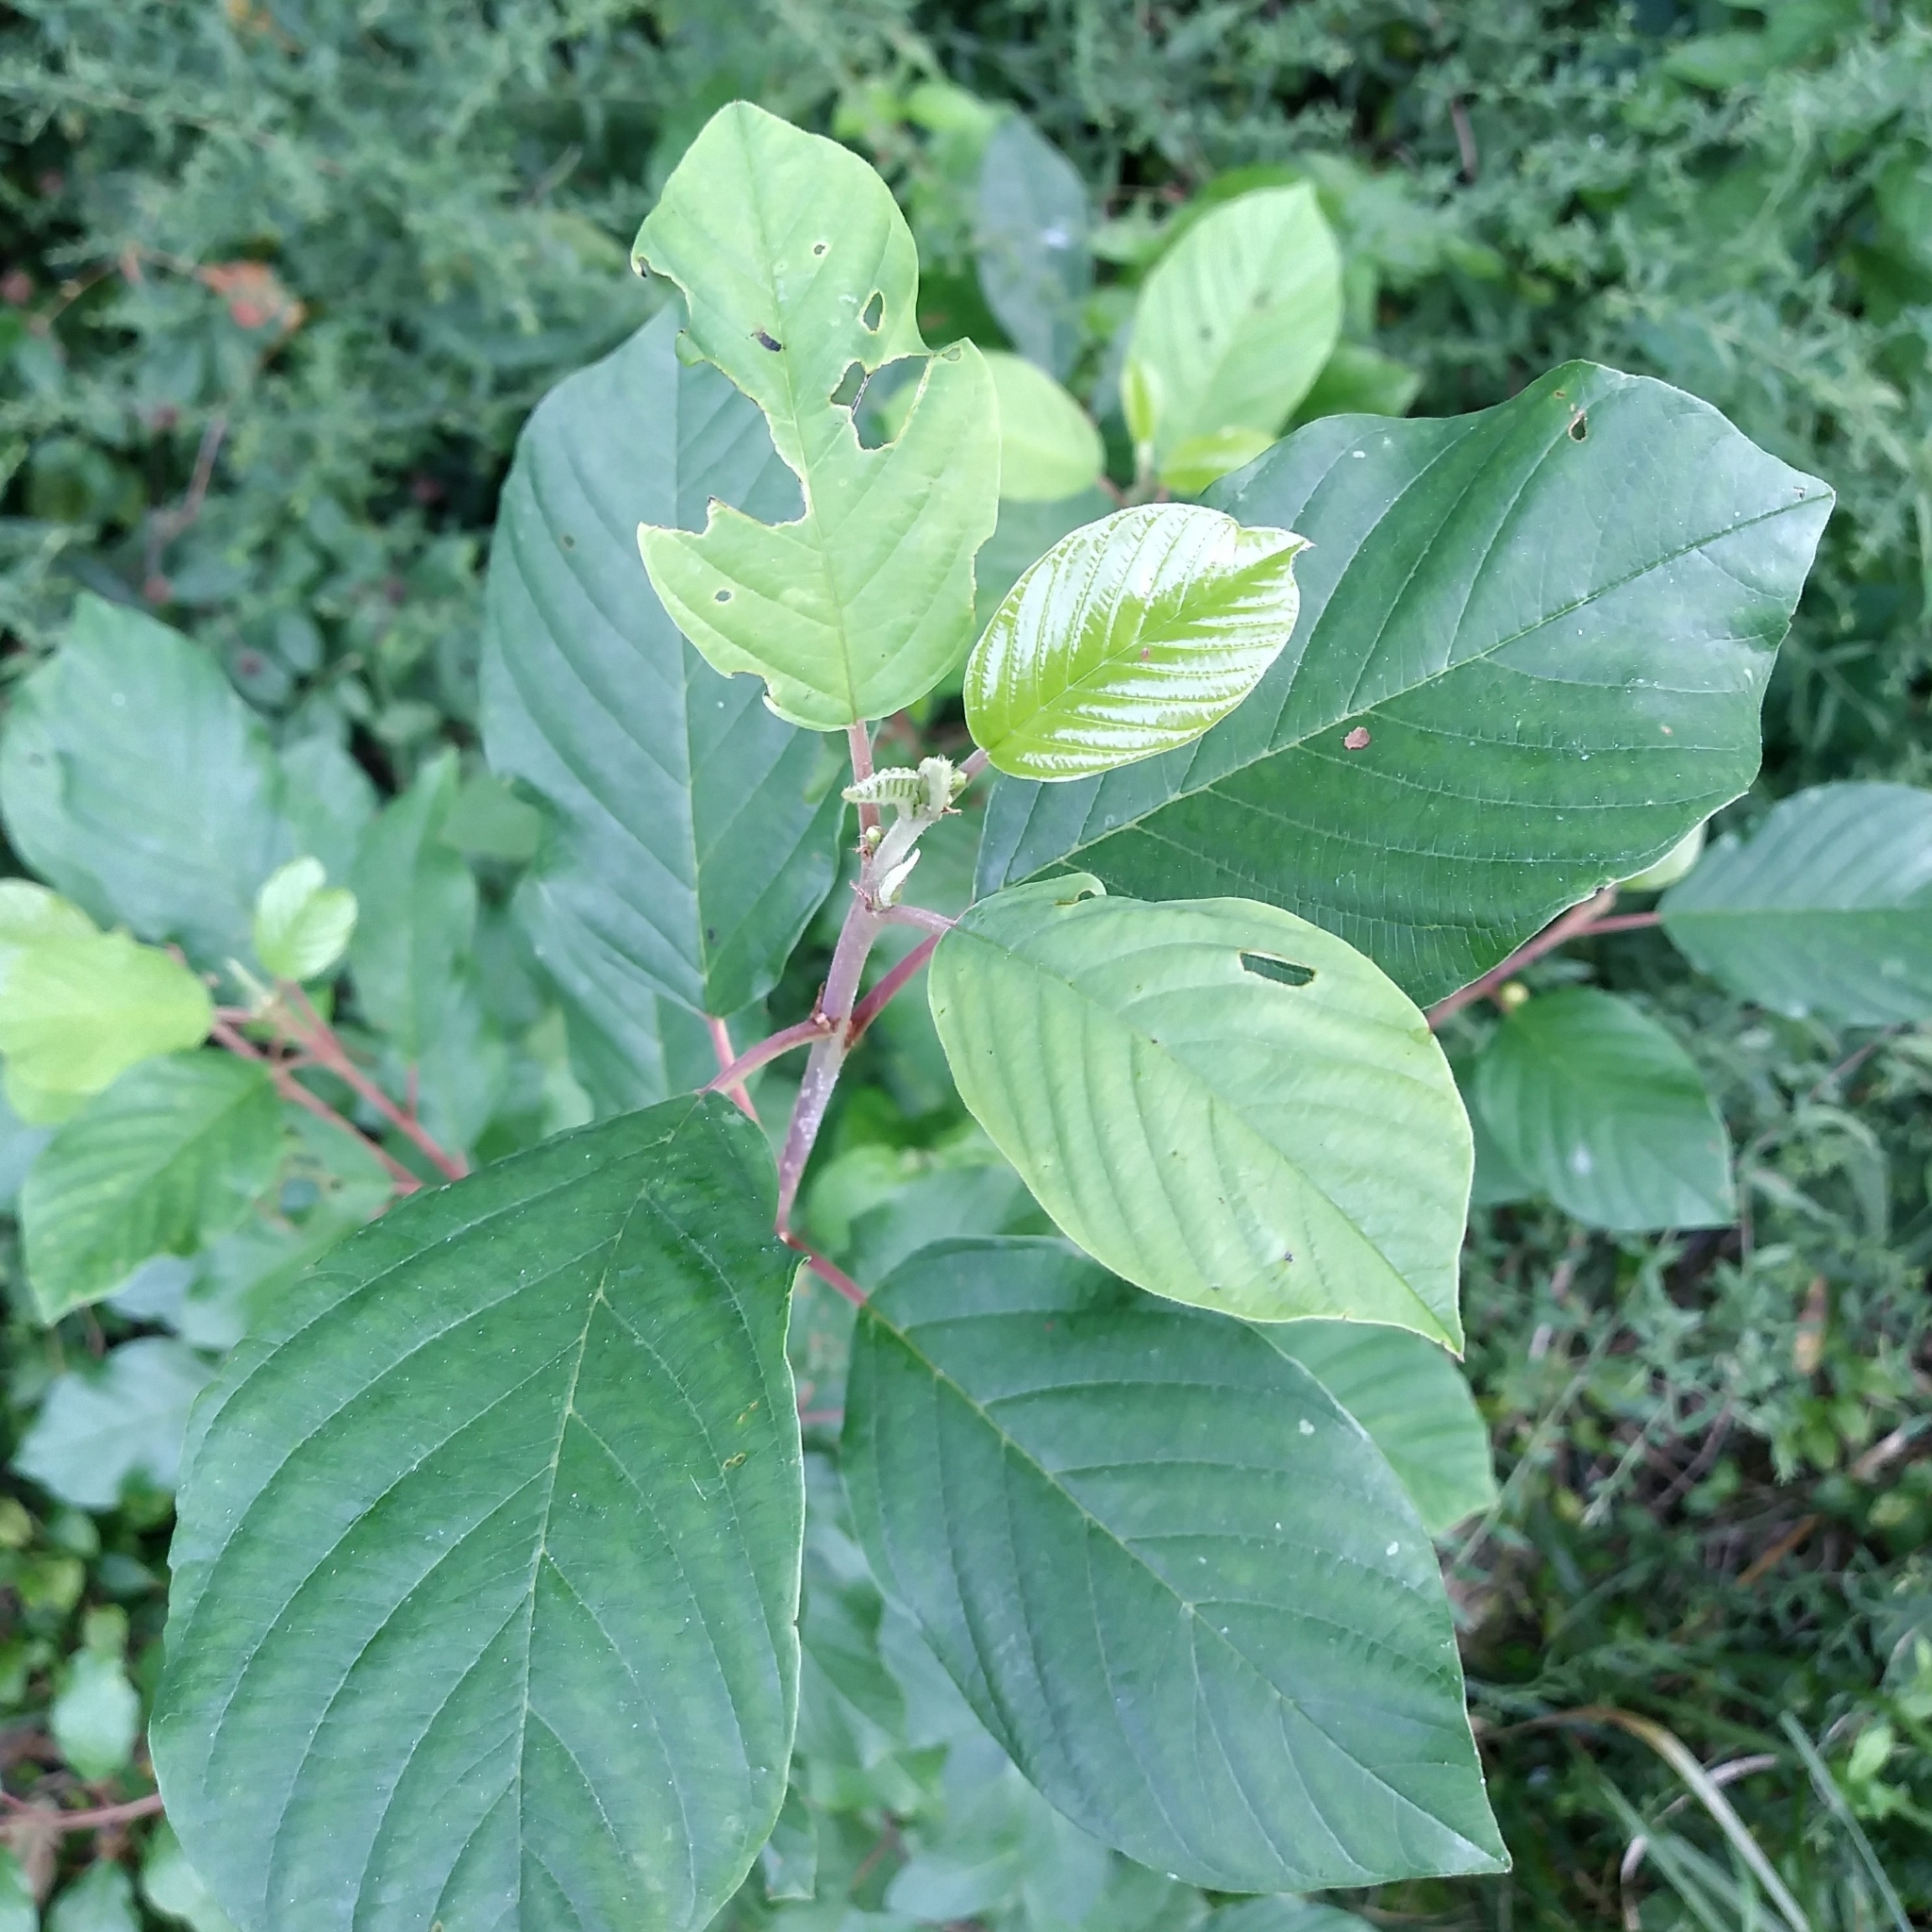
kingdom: Plantae
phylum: Tracheophyta
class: Magnoliopsida
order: Rosales
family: Rhamnaceae
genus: Frangula
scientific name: Frangula alnus
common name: Alder buckthorn
